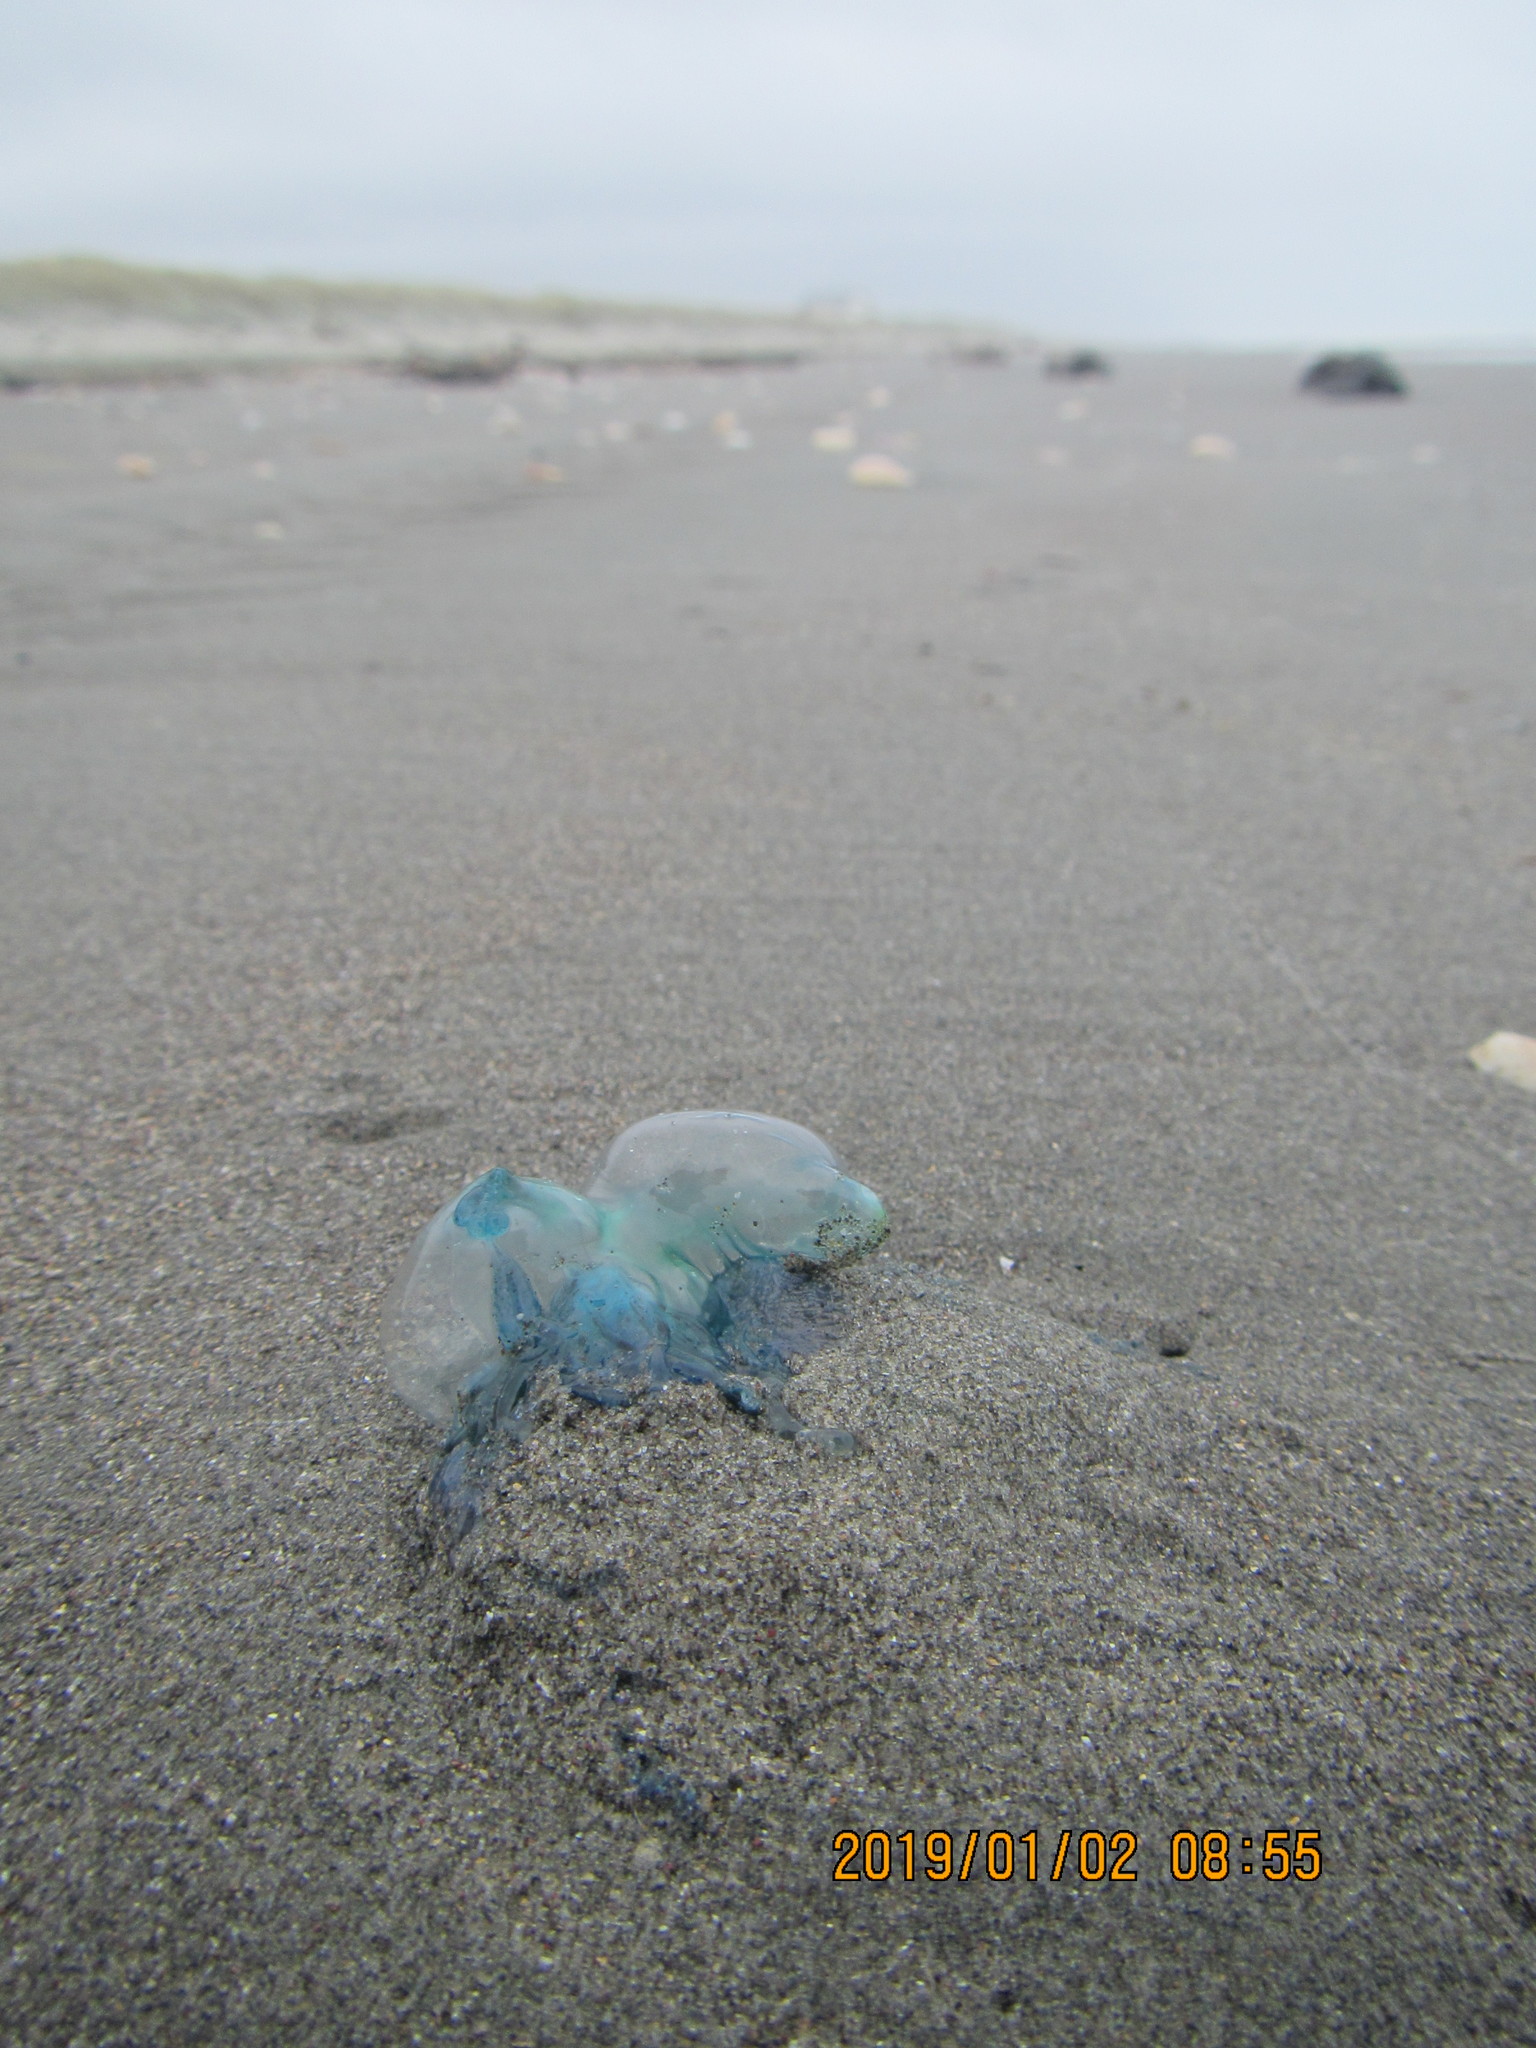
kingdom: Animalia
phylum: Cnidaria
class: Hydrozoa
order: Siphonophorae
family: Physaliidae
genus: Physalia
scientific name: Physalia physalis
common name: Portuguese man-of-war
